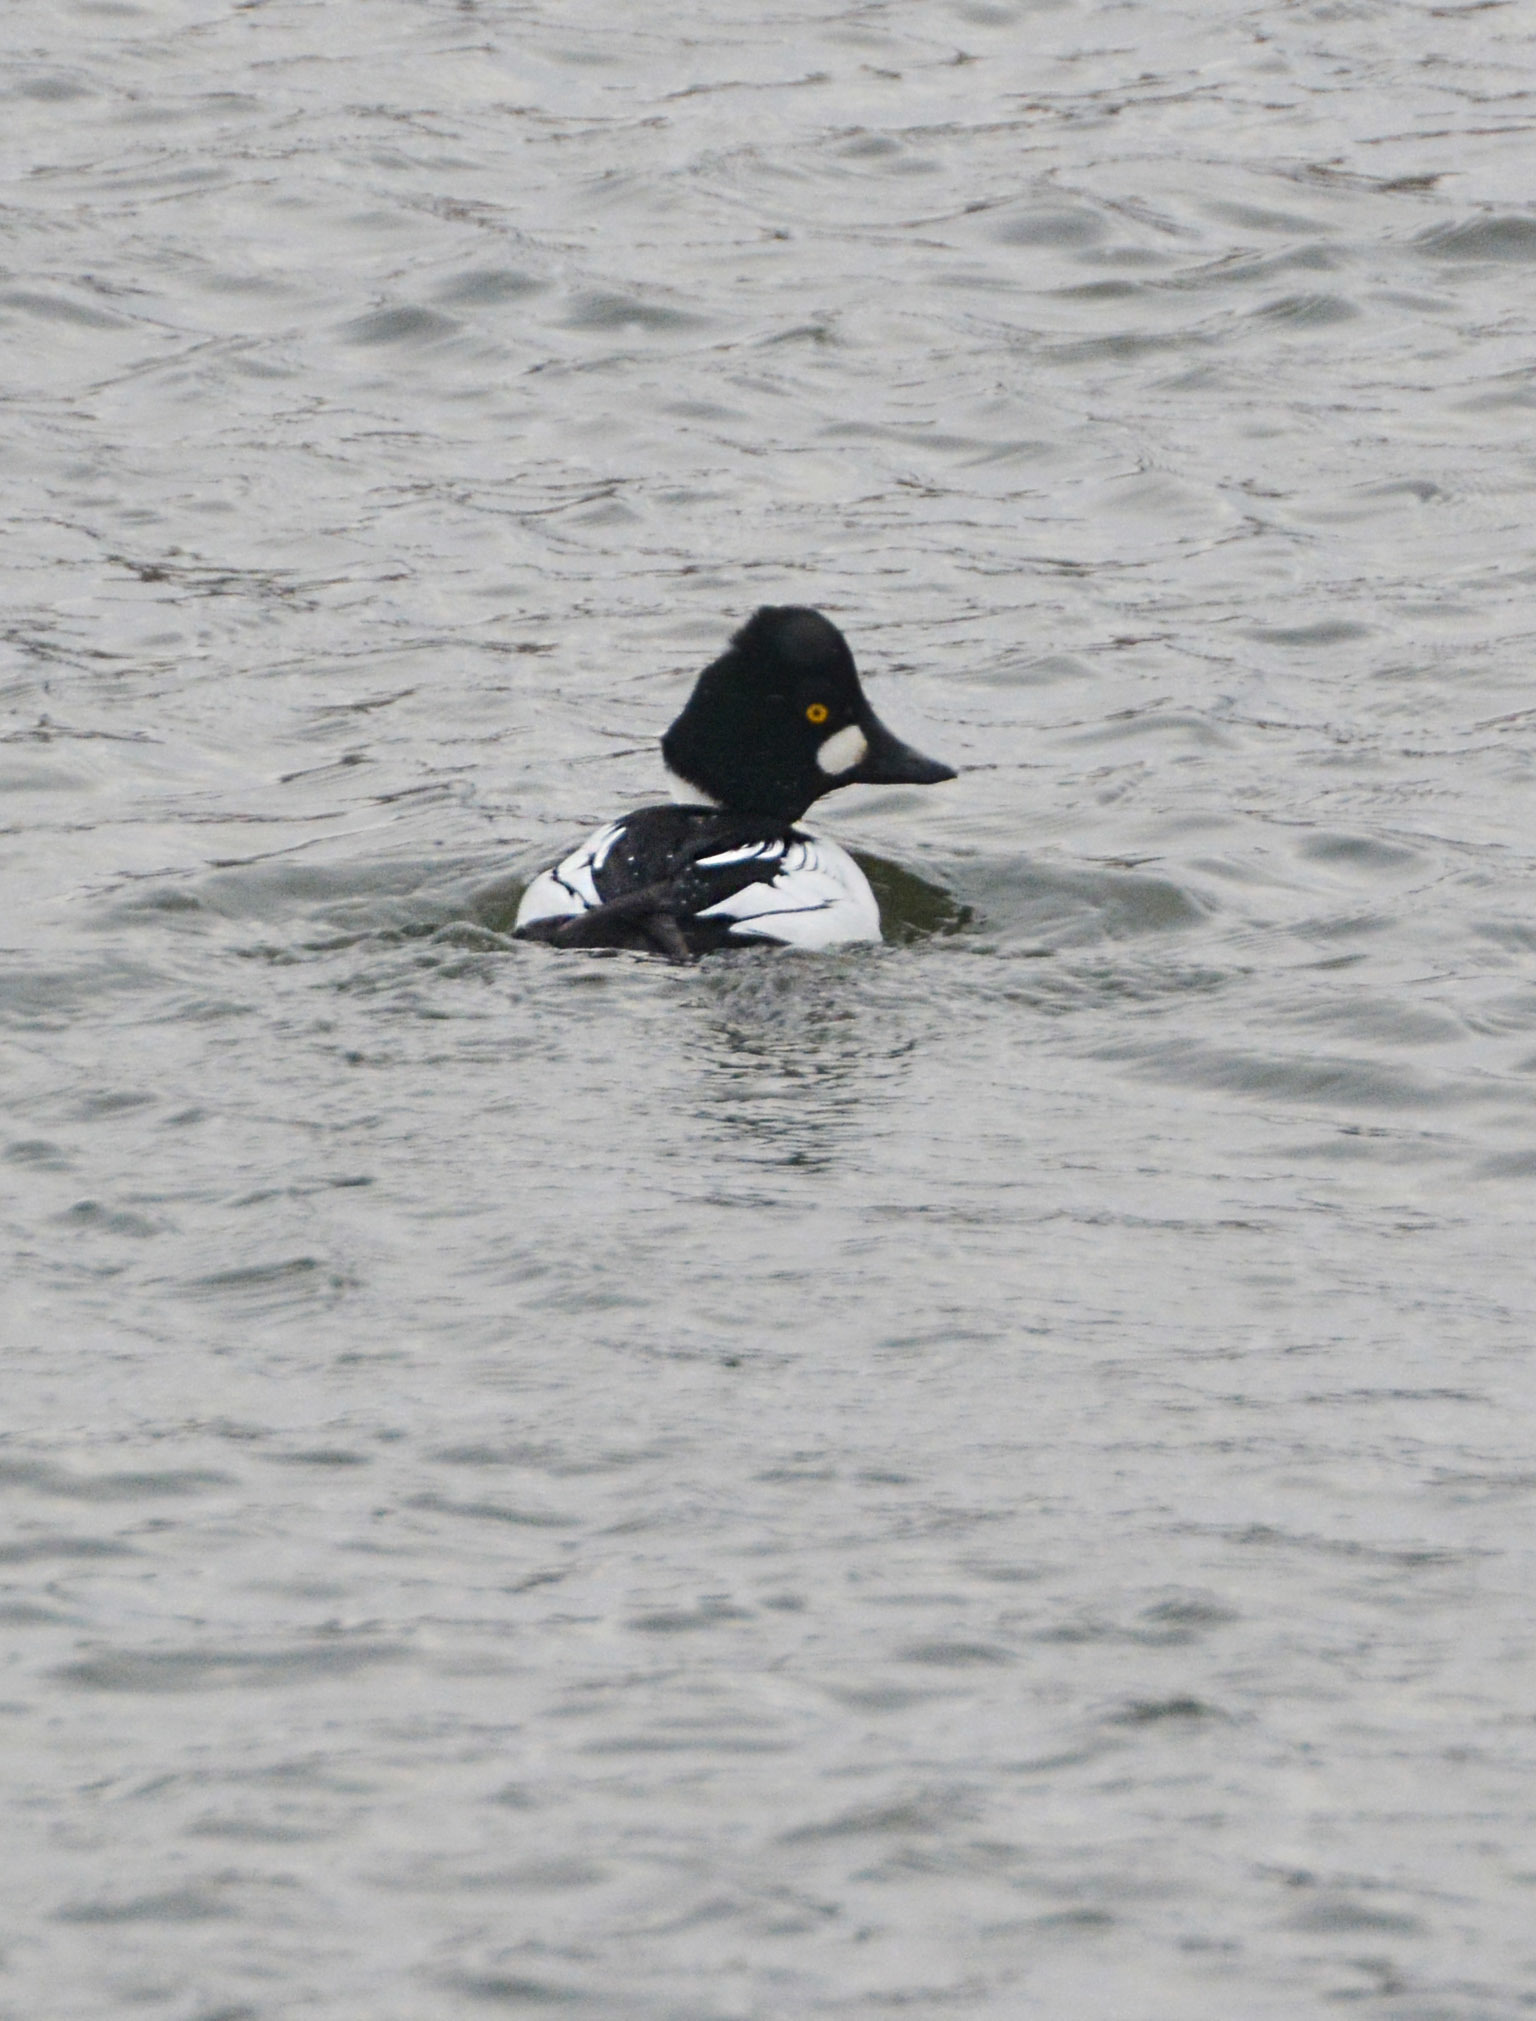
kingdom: Animalia
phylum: Chordata
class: Aves
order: Anseriformes
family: Anatidae
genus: Bucephala
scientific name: Bucephala clangula
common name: Common goldeneye
